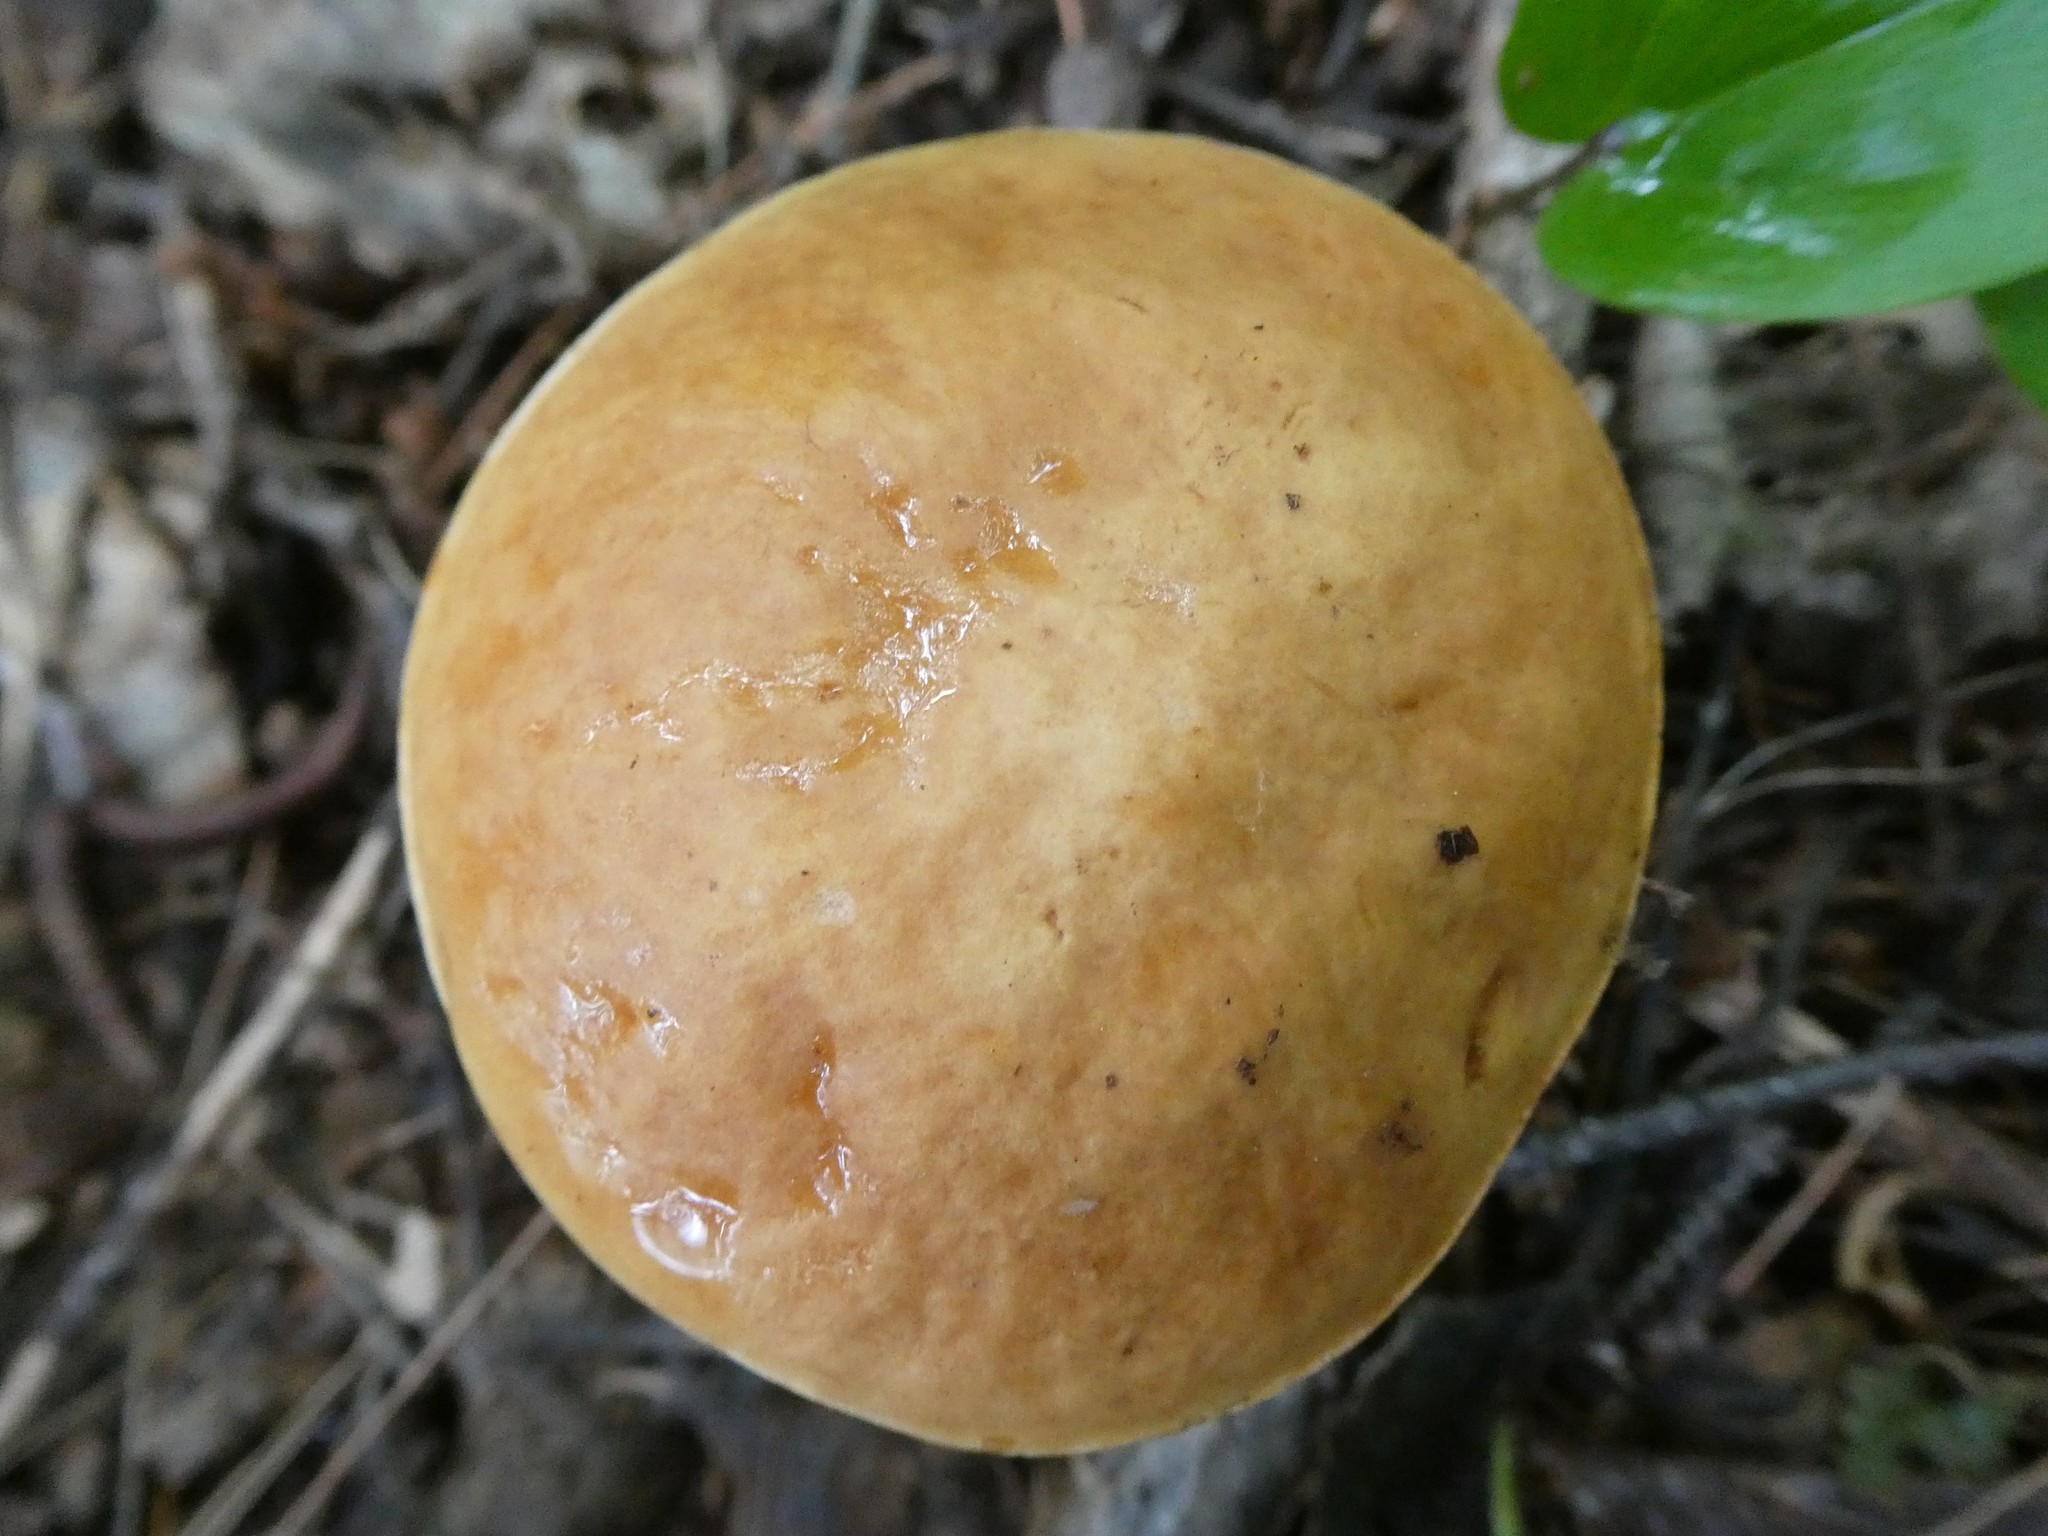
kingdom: Fungi
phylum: Basidiomycota
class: Agaricomycetes
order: Boletales
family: Boletaceae
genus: Hemileccinum
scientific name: Hemileccinum subglabripes
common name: Smoothish-stemmed bolete
